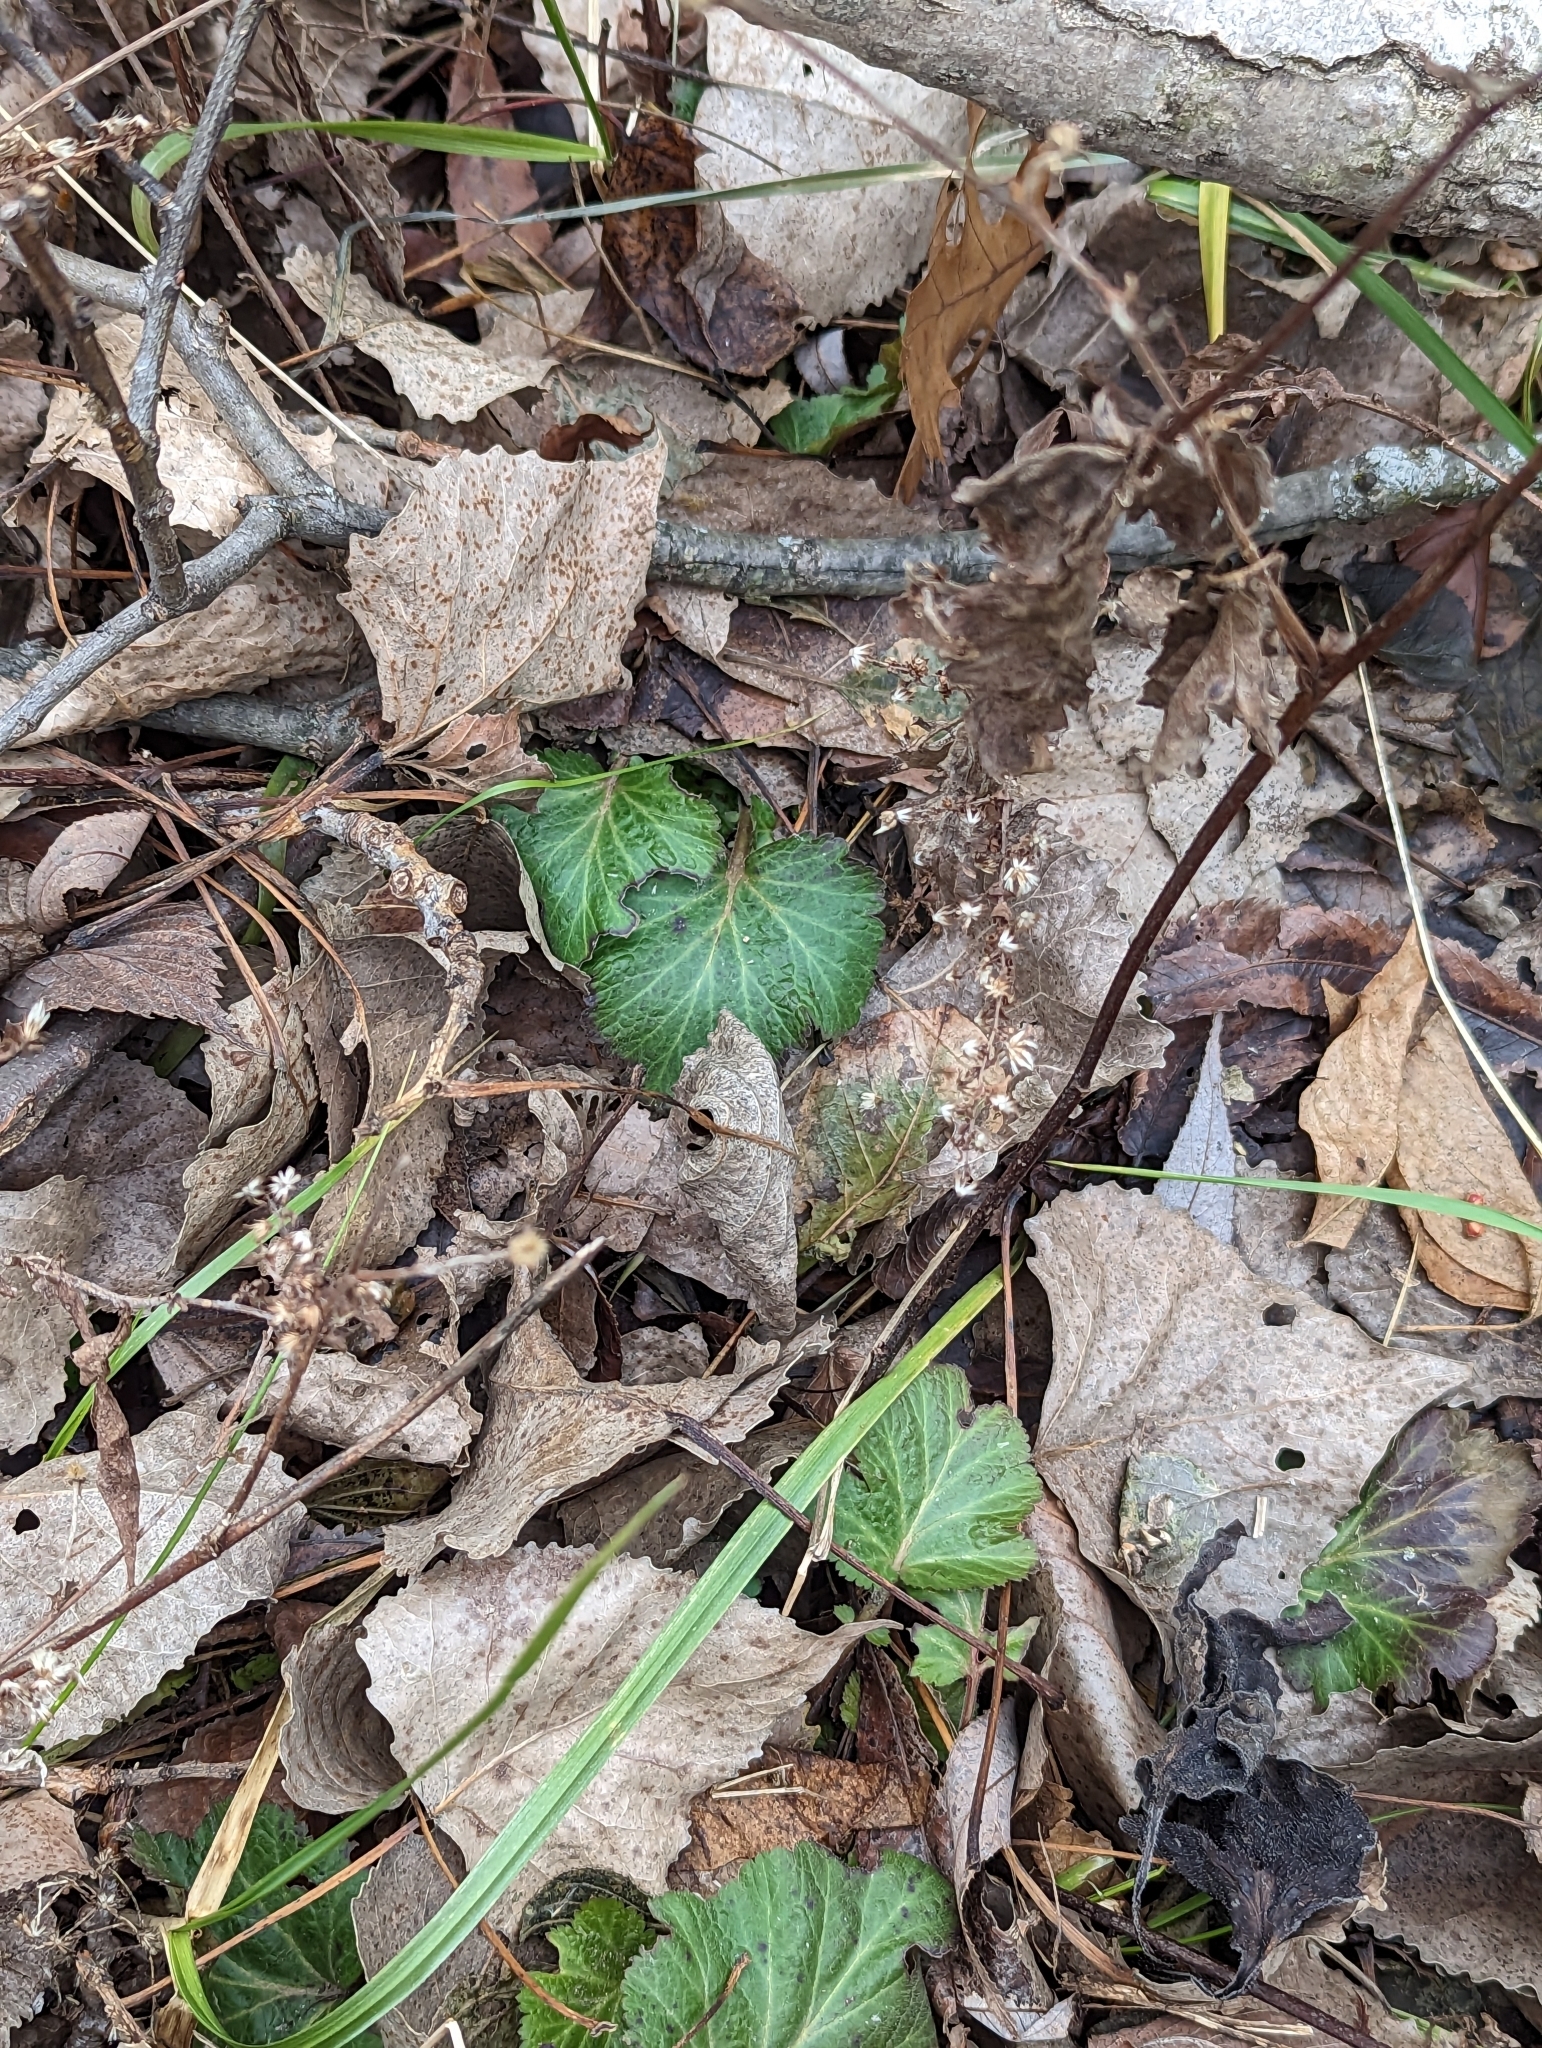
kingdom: Plantae
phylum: Tracheophyta
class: Magnoliopsida
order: Rosales
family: Rosaceae
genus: Geum
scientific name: Geum canadense
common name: White avens
